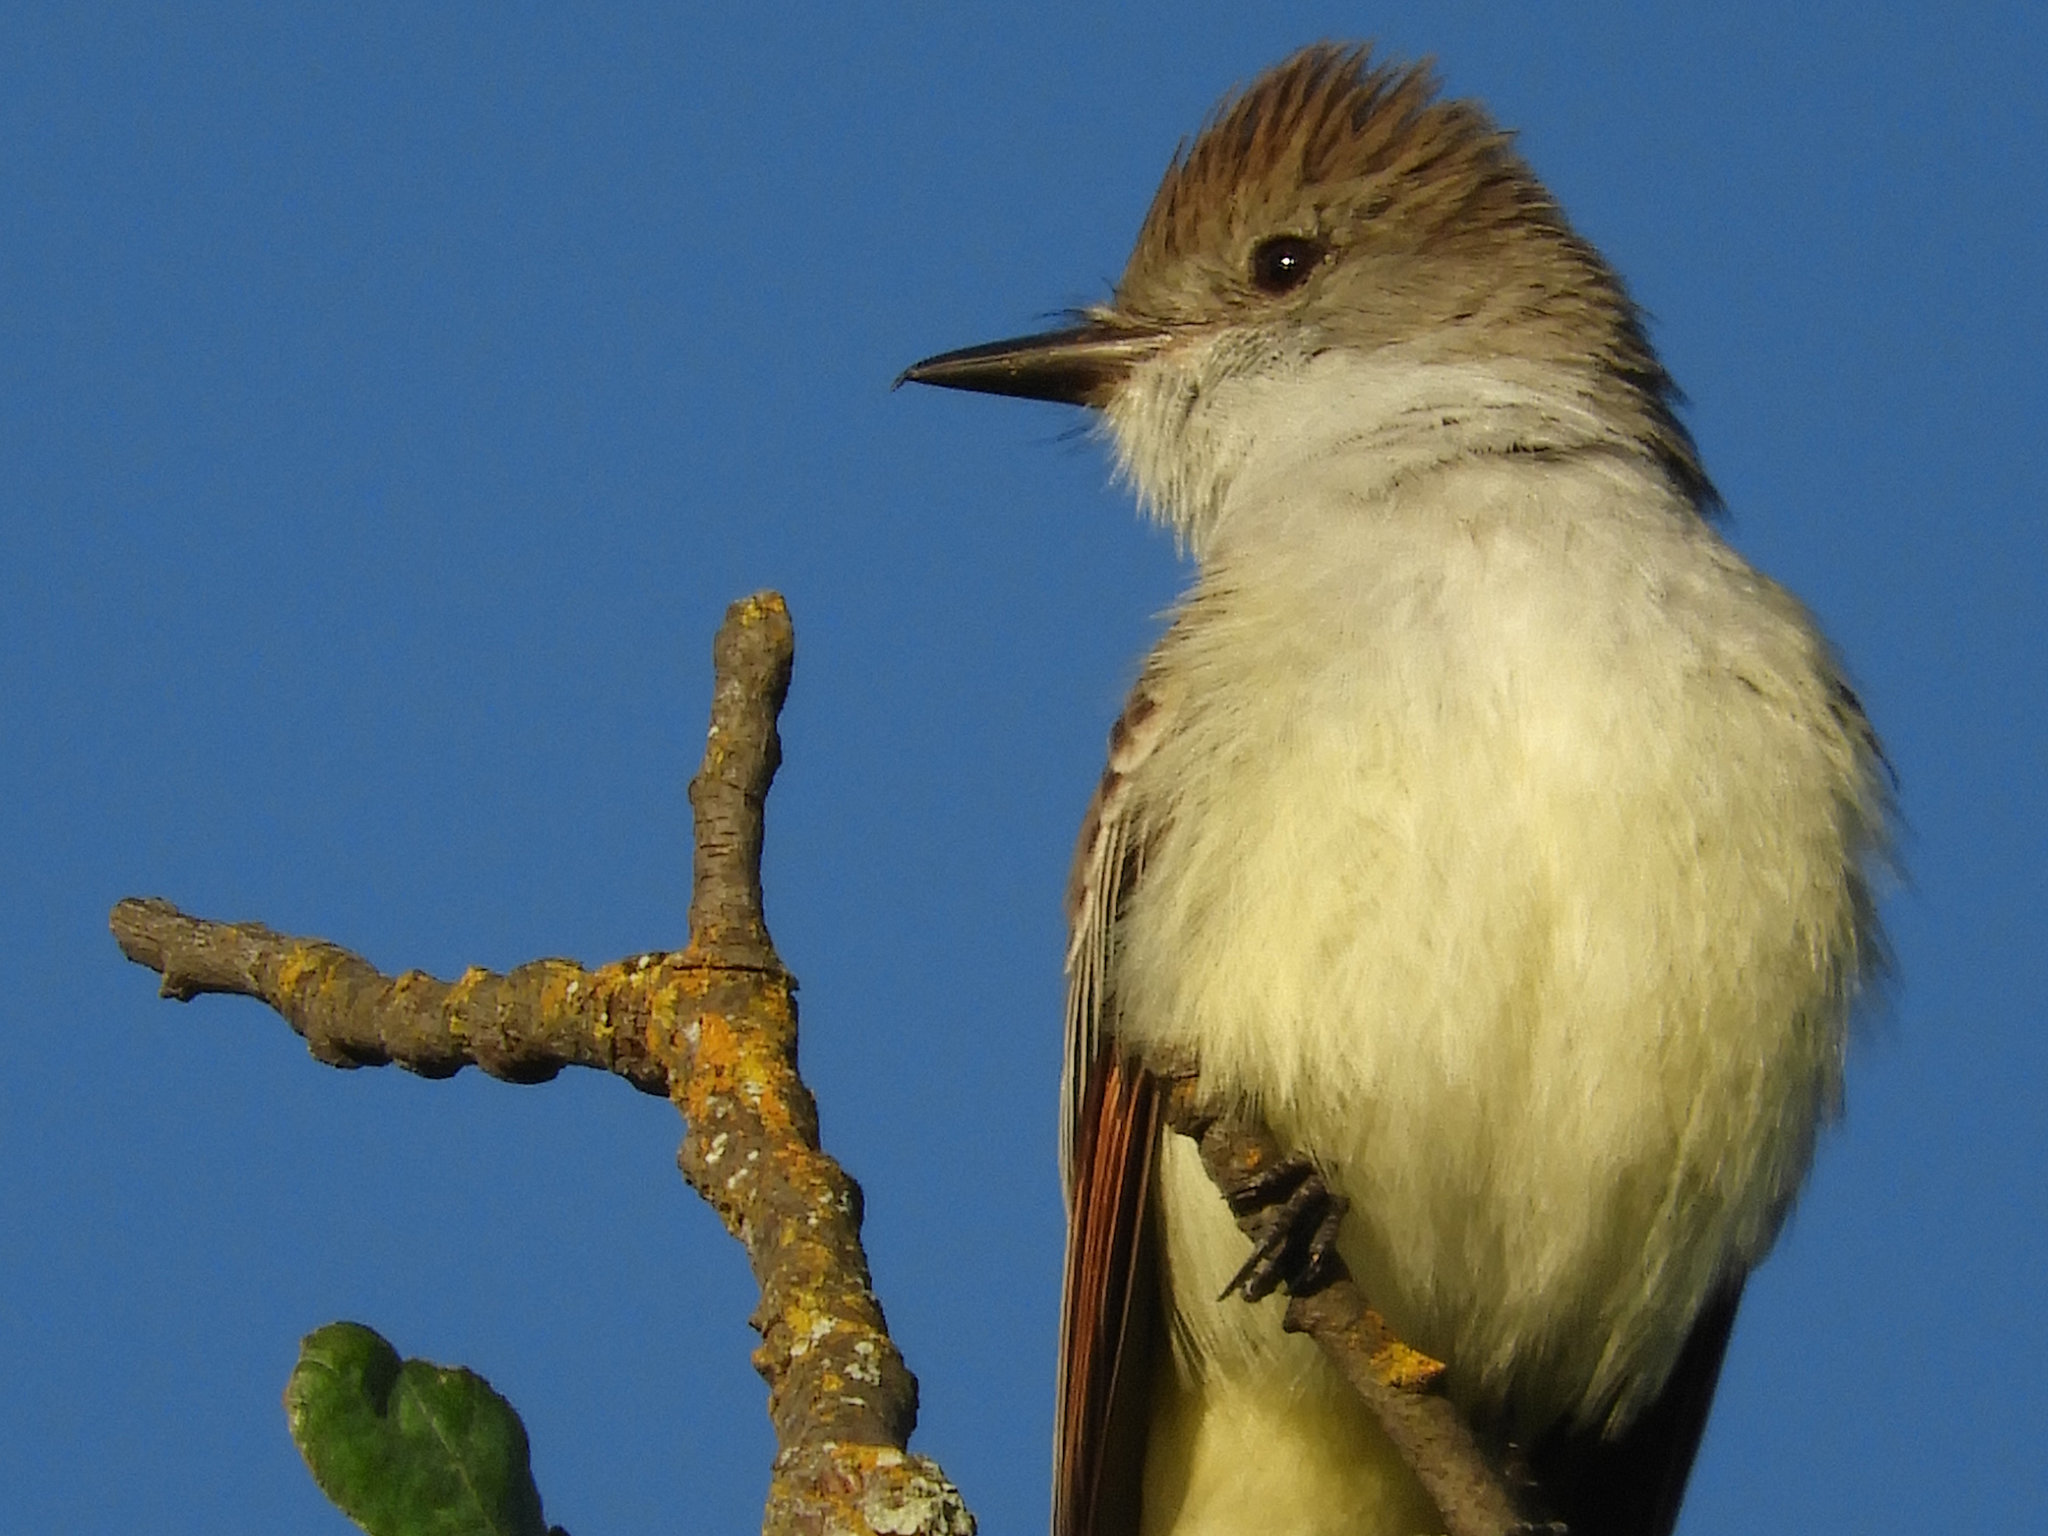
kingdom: Animalia
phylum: Chordata
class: Aves
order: Passeriformes
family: Tyrannidae
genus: Myiarchus
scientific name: Myiarchus cinerascens
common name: Ash-throated flycatcher
